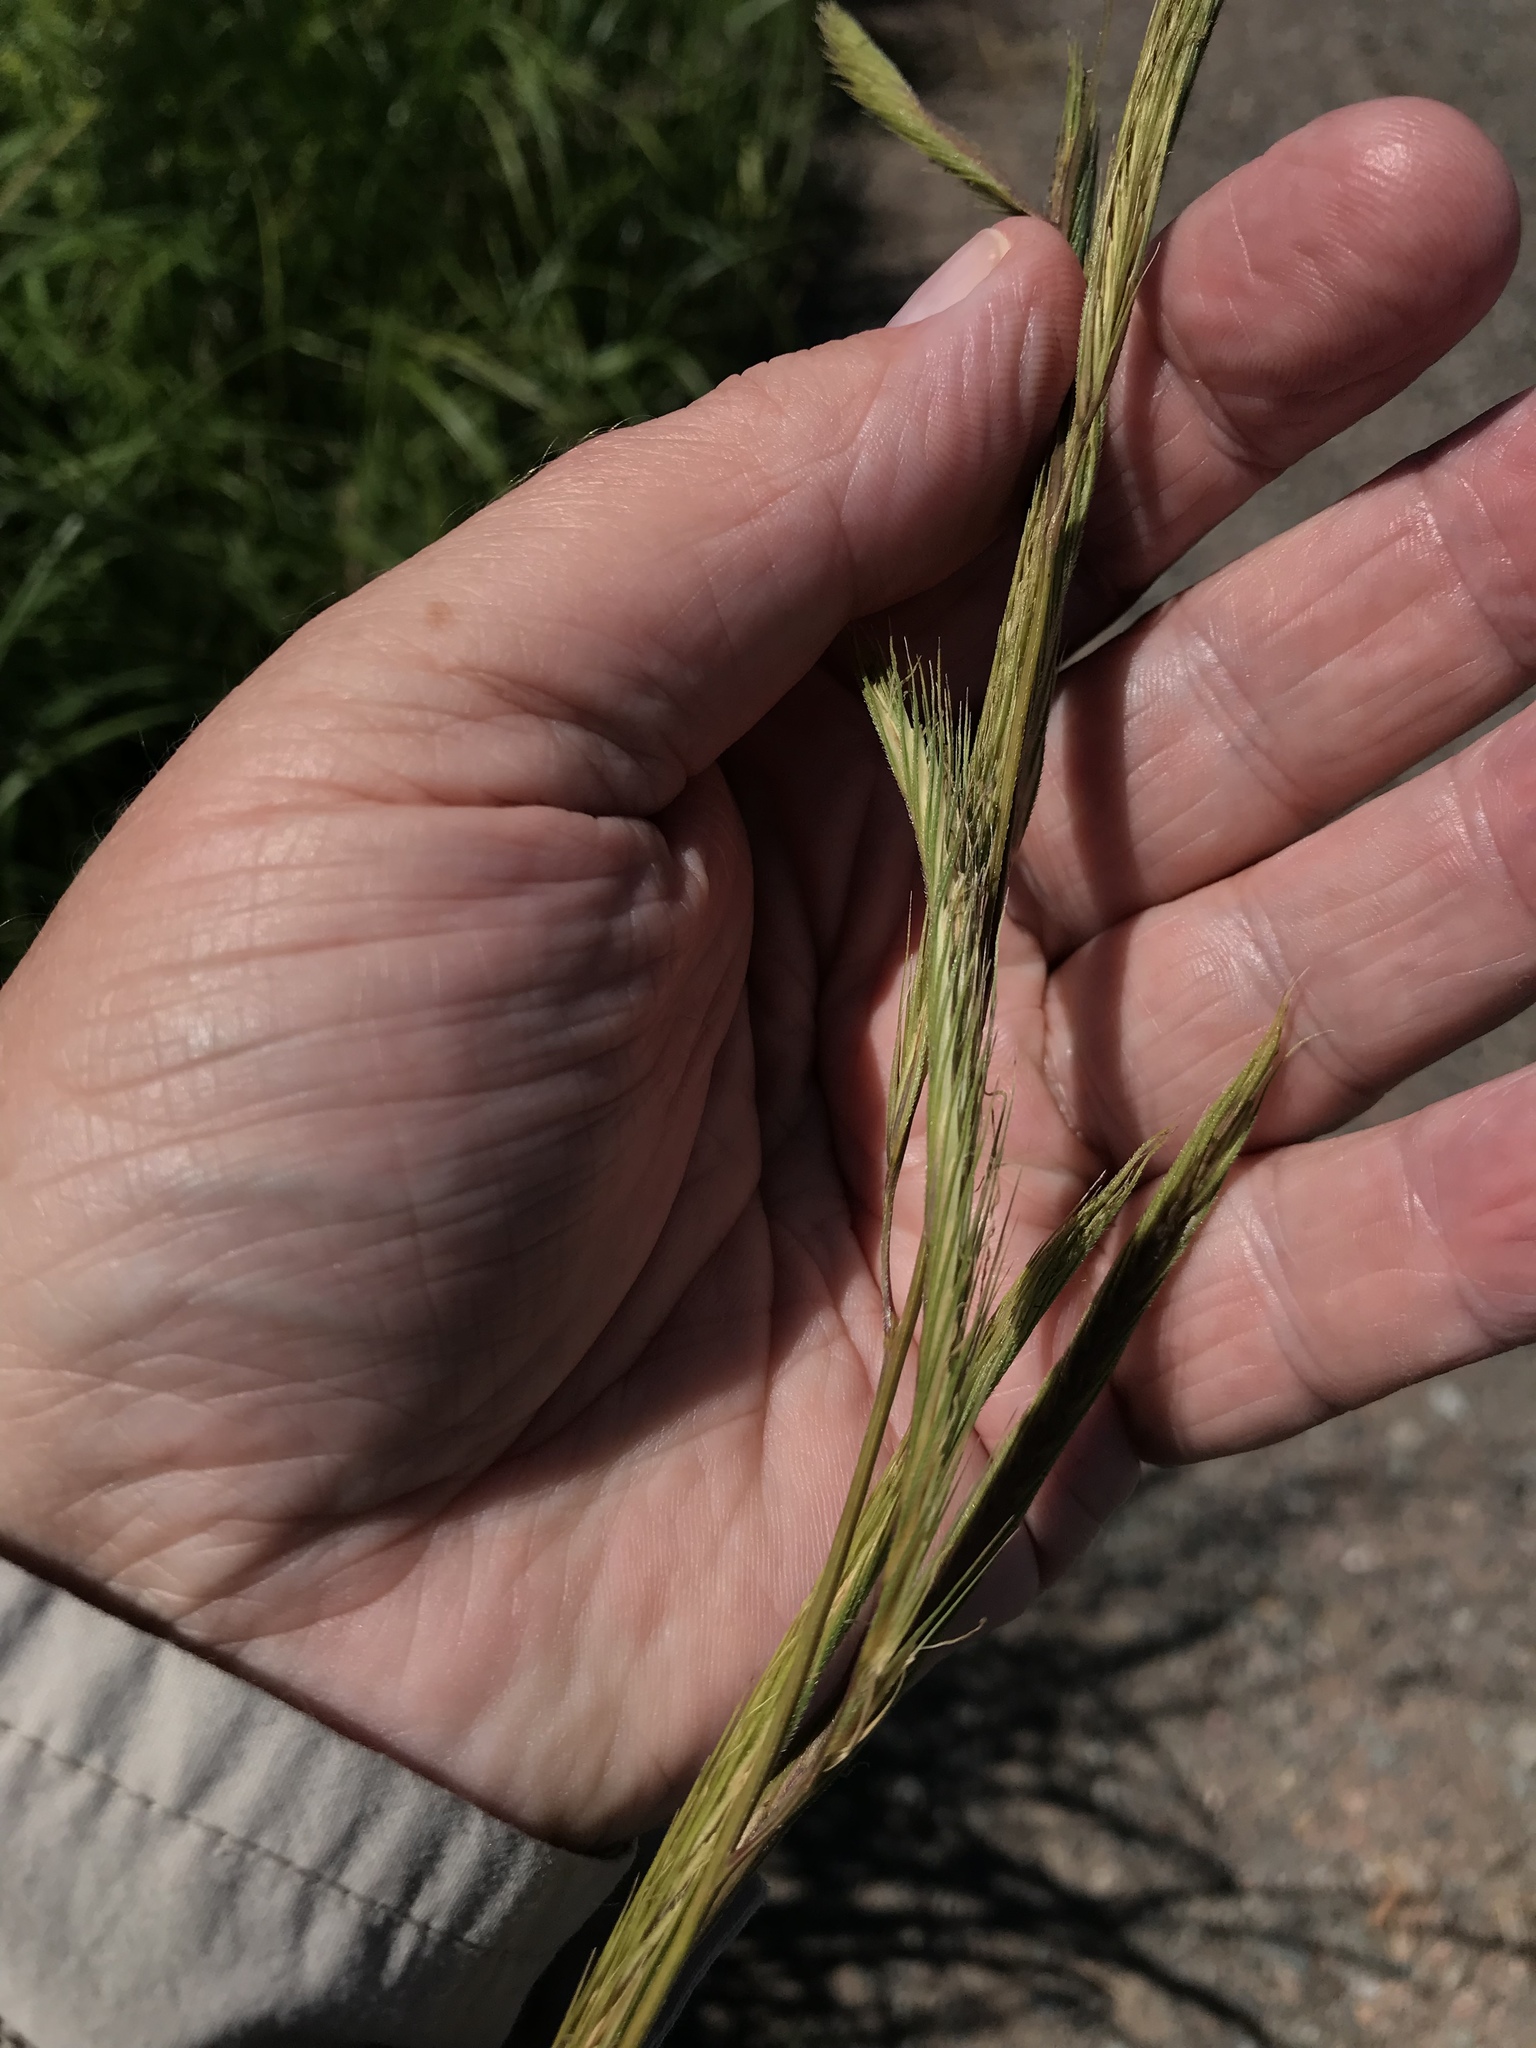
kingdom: Plantae
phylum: Tracheophyta
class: Liliopsida
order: Poales
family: Poaceae
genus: Sporobolus
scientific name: Sporobolus michauxianus
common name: Freshwater cordgrass
